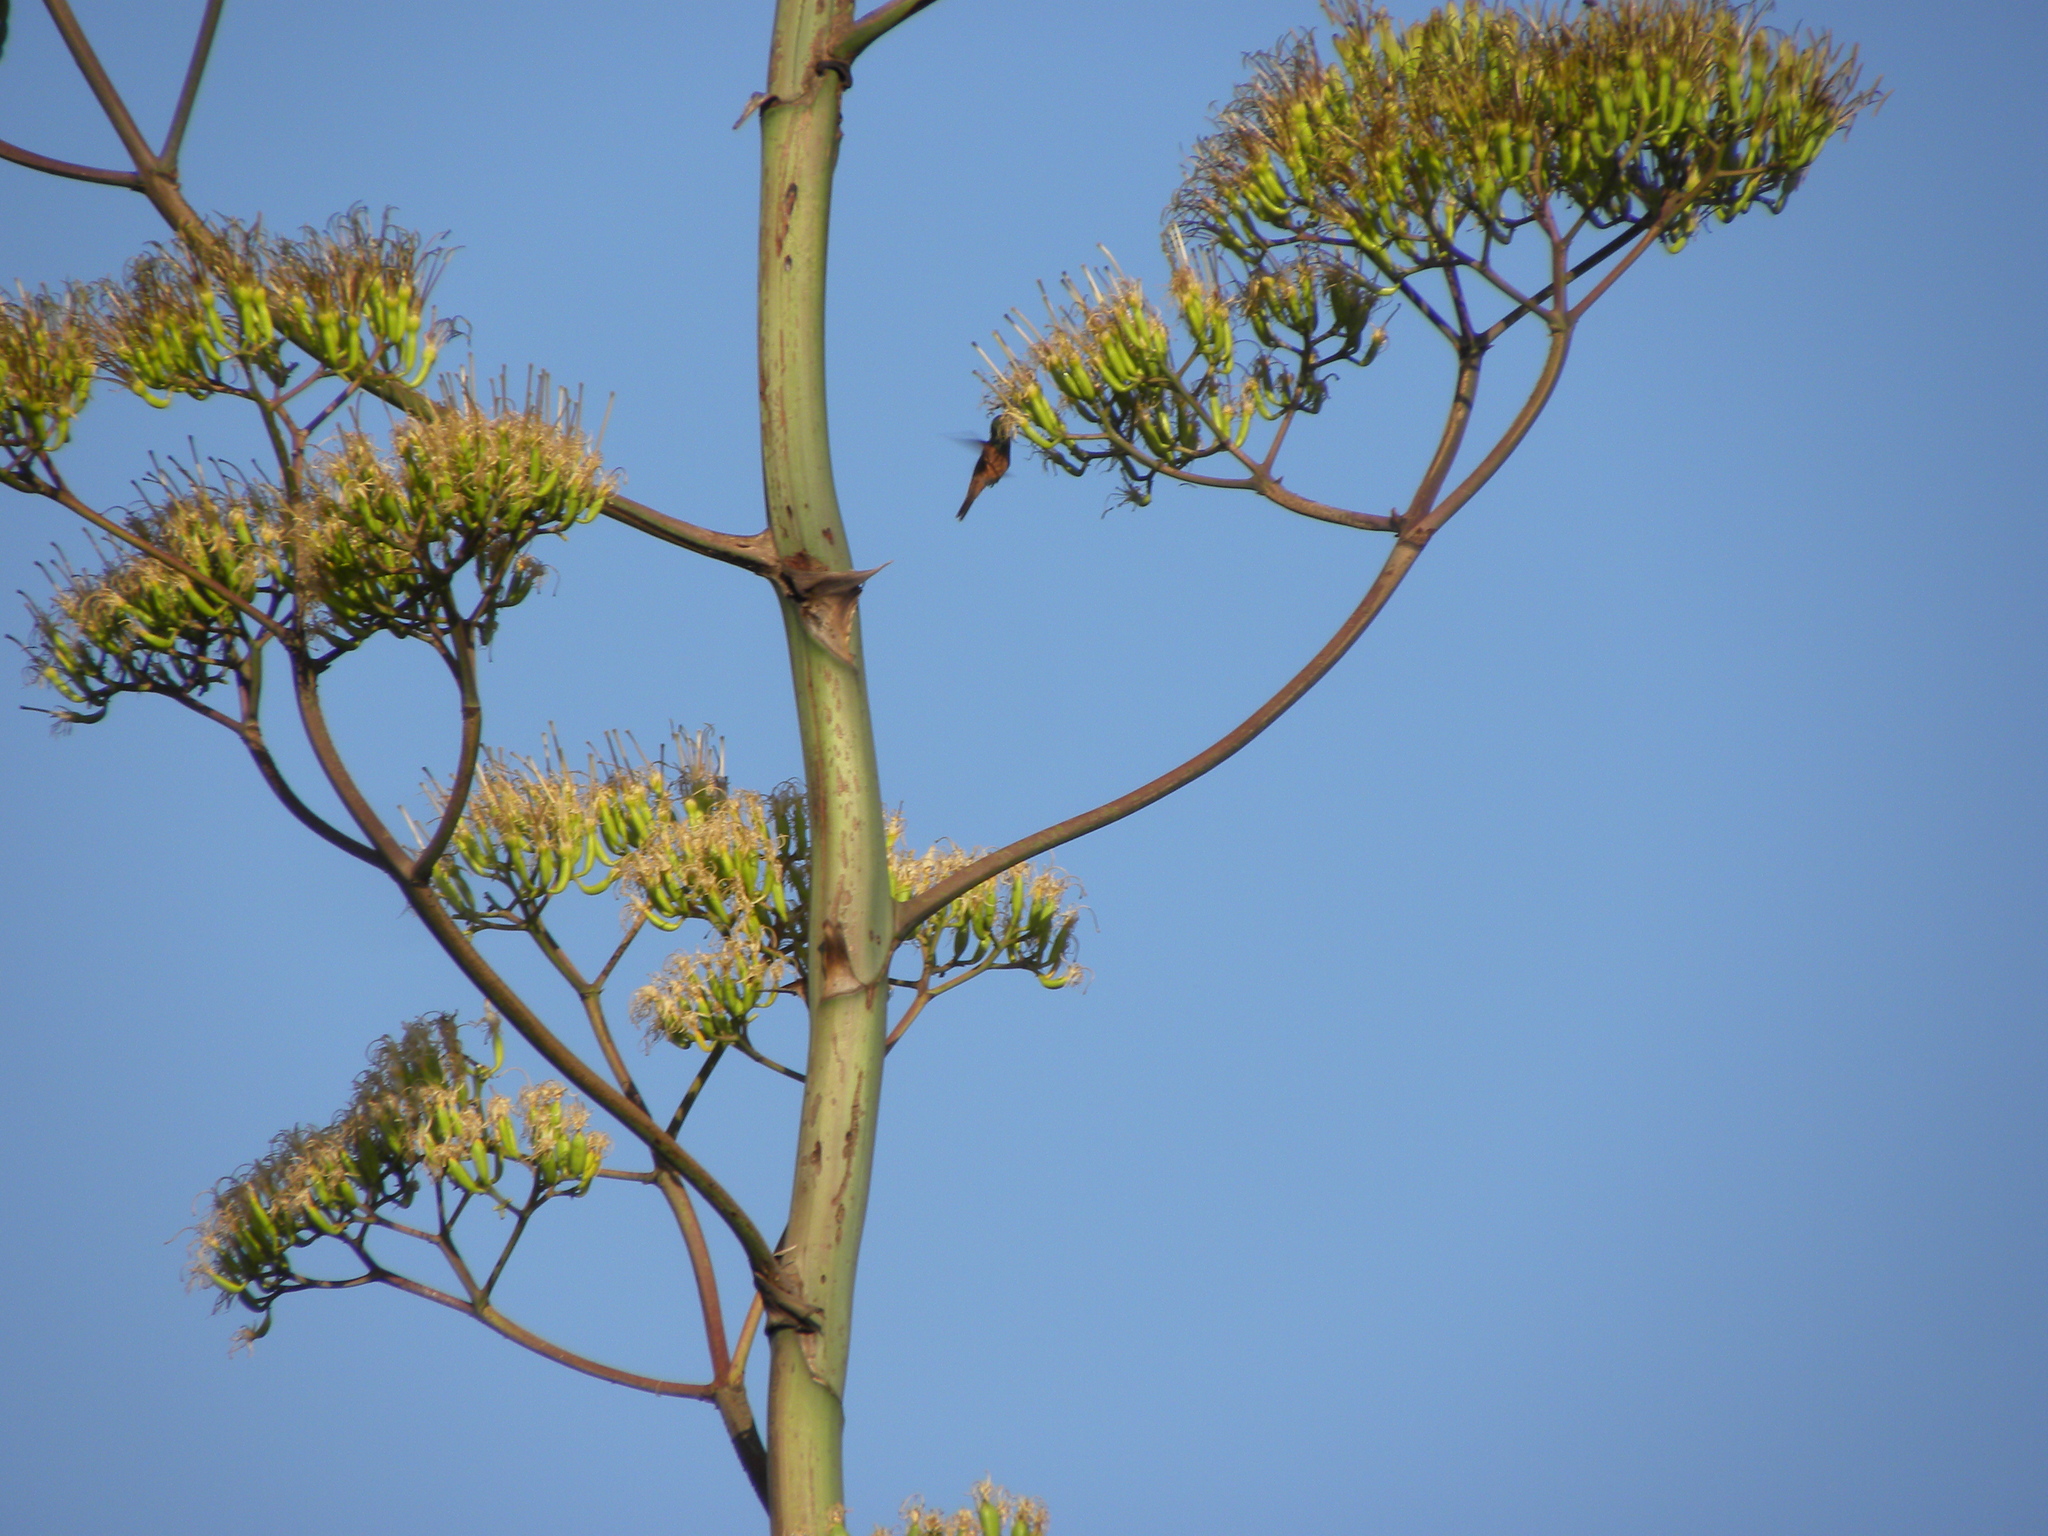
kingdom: Animalia
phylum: Chordata
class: Aves
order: Apodiformes
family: Trochilidae
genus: Amazilia
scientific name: Amazilia yucatanensis
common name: Buff-bellied hummingbird
